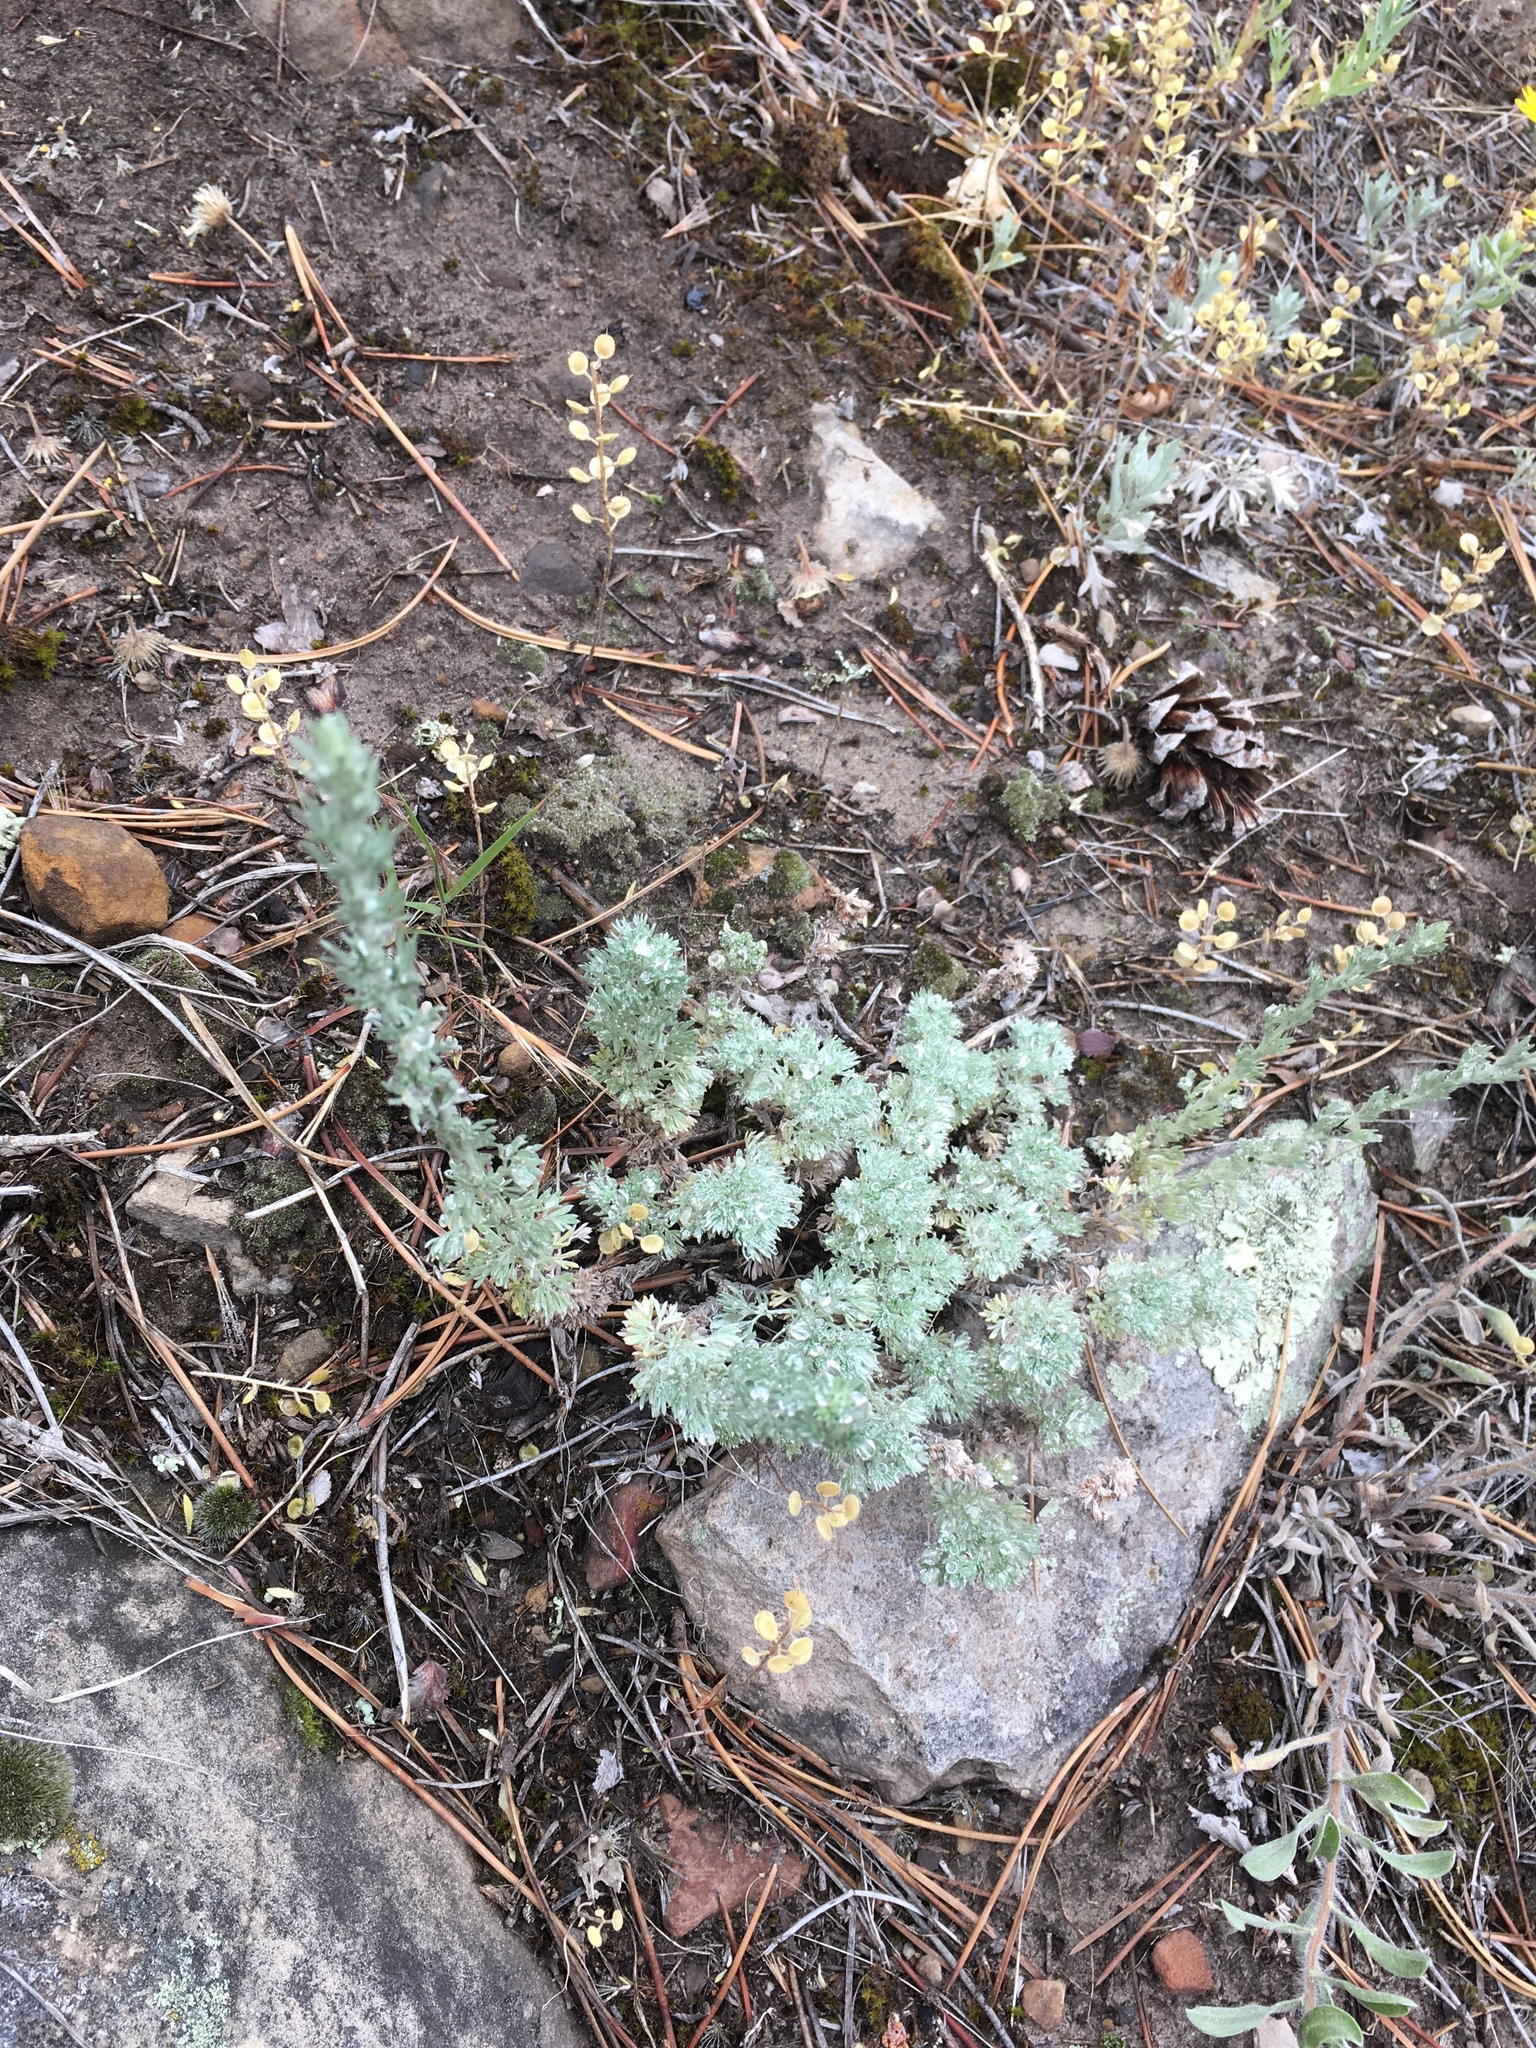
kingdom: Plantae
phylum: Tracheophyta
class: Magnoliopsida
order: Asterales
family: Asteraceae
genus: Artemisia
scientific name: Artemisia frigida
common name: Prairie sagewort
